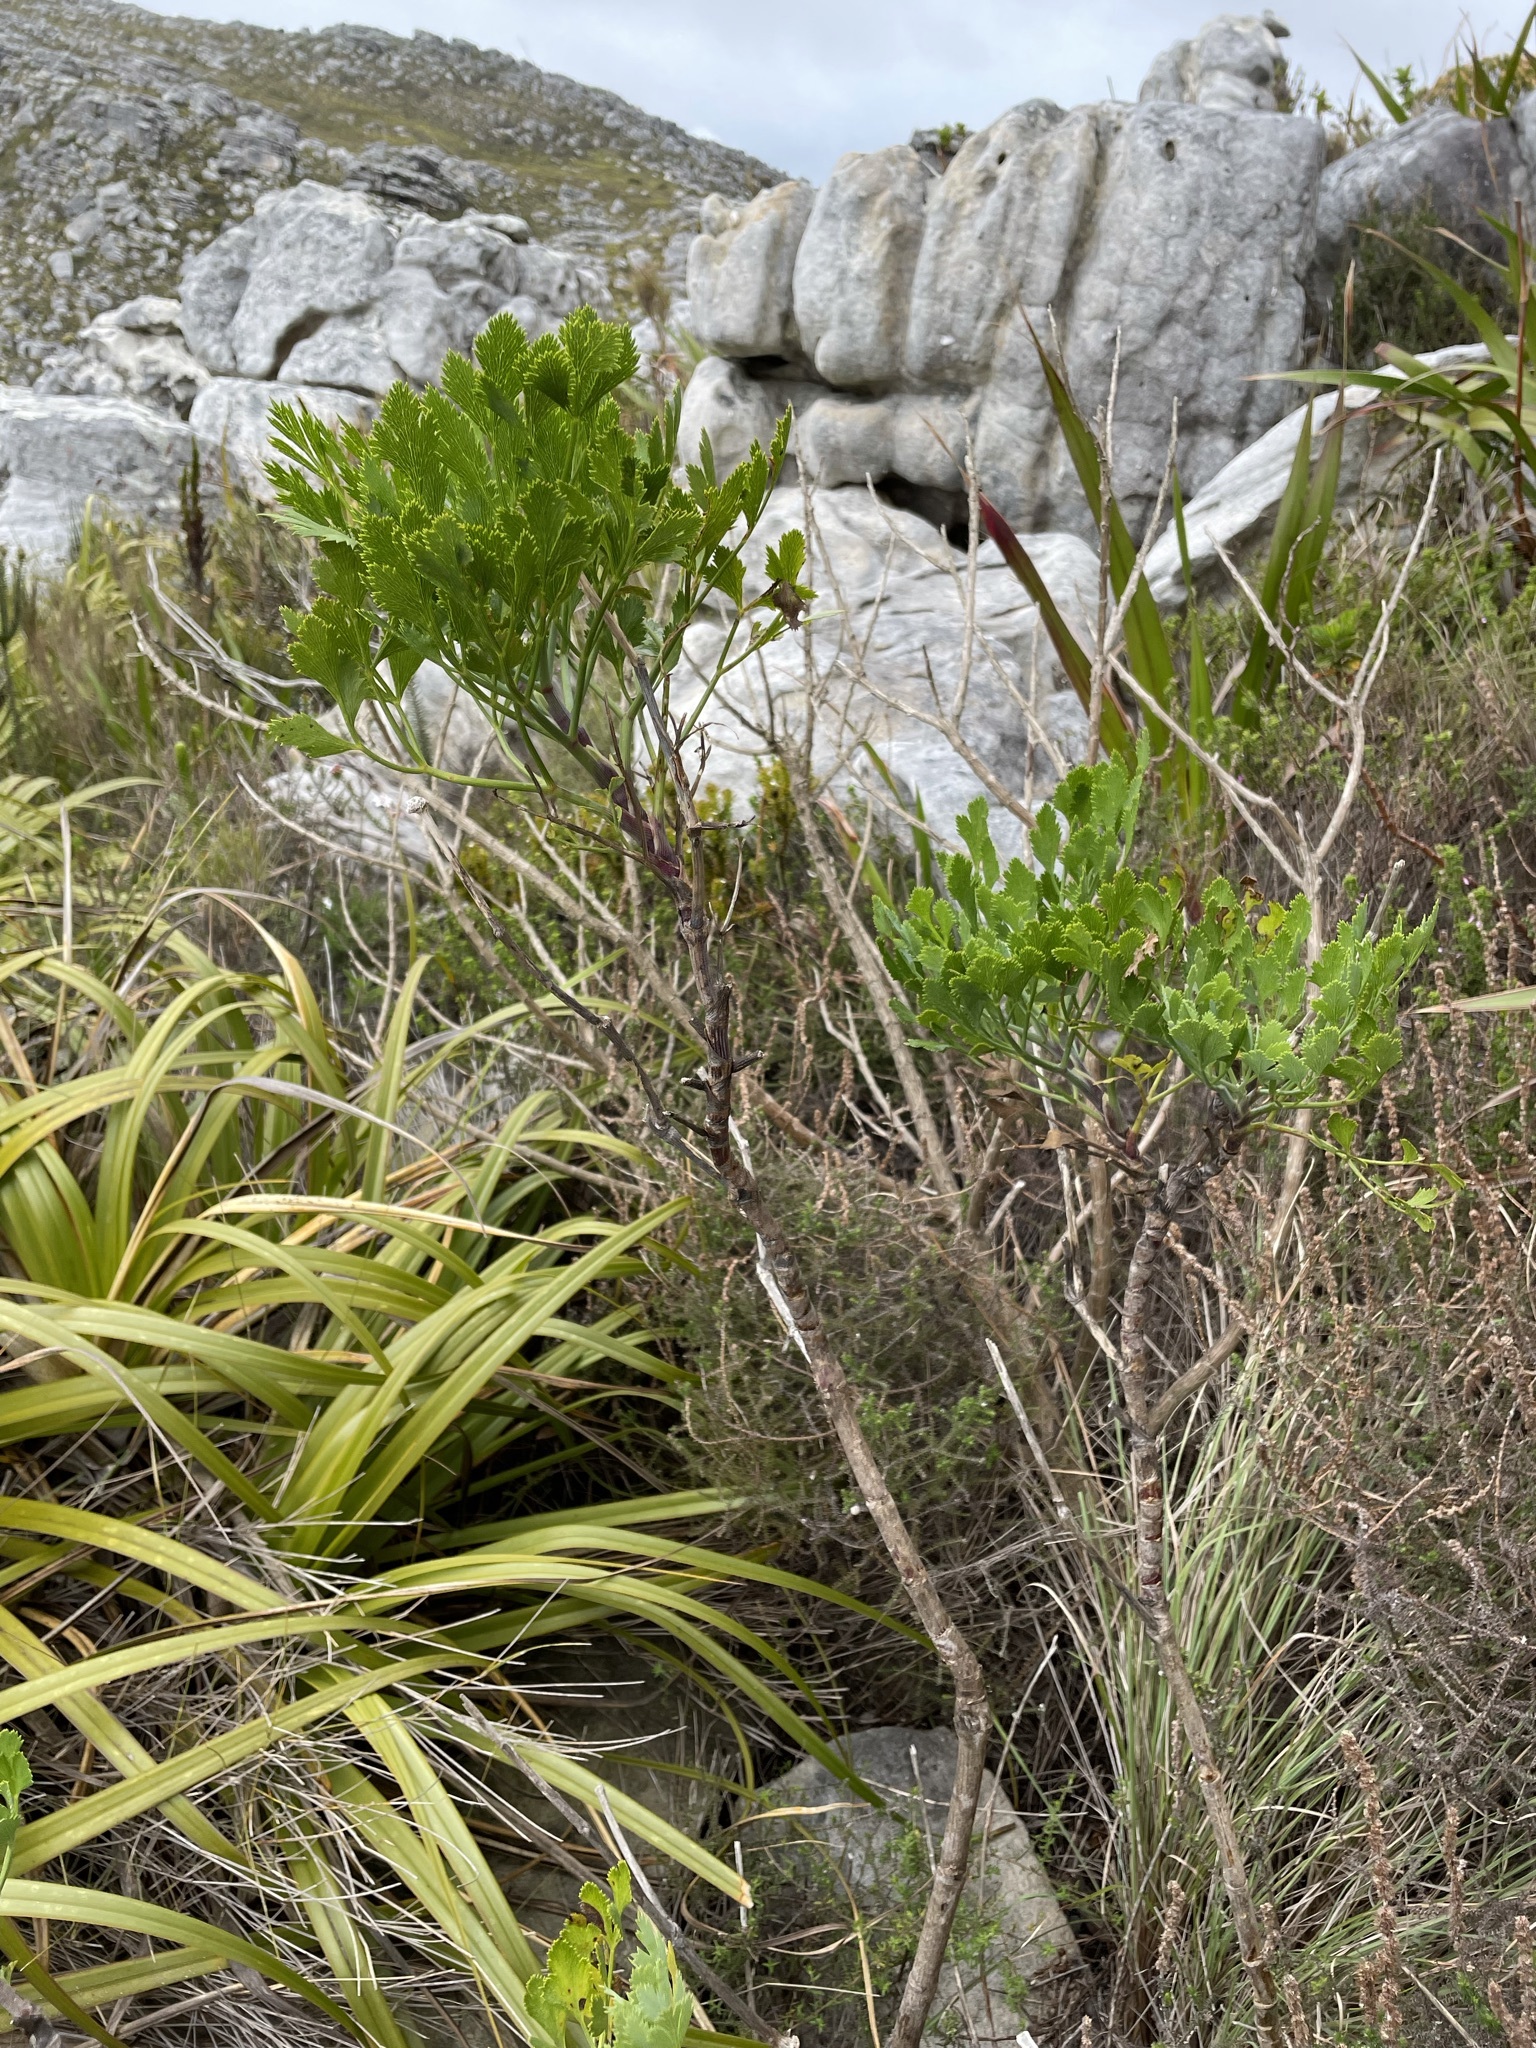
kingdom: Plantae
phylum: Tracheophyta
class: Magnoliopsida
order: Apiales
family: Apiaceae
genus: Notobubon
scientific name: Notobubon galbanum
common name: Blisterbush
